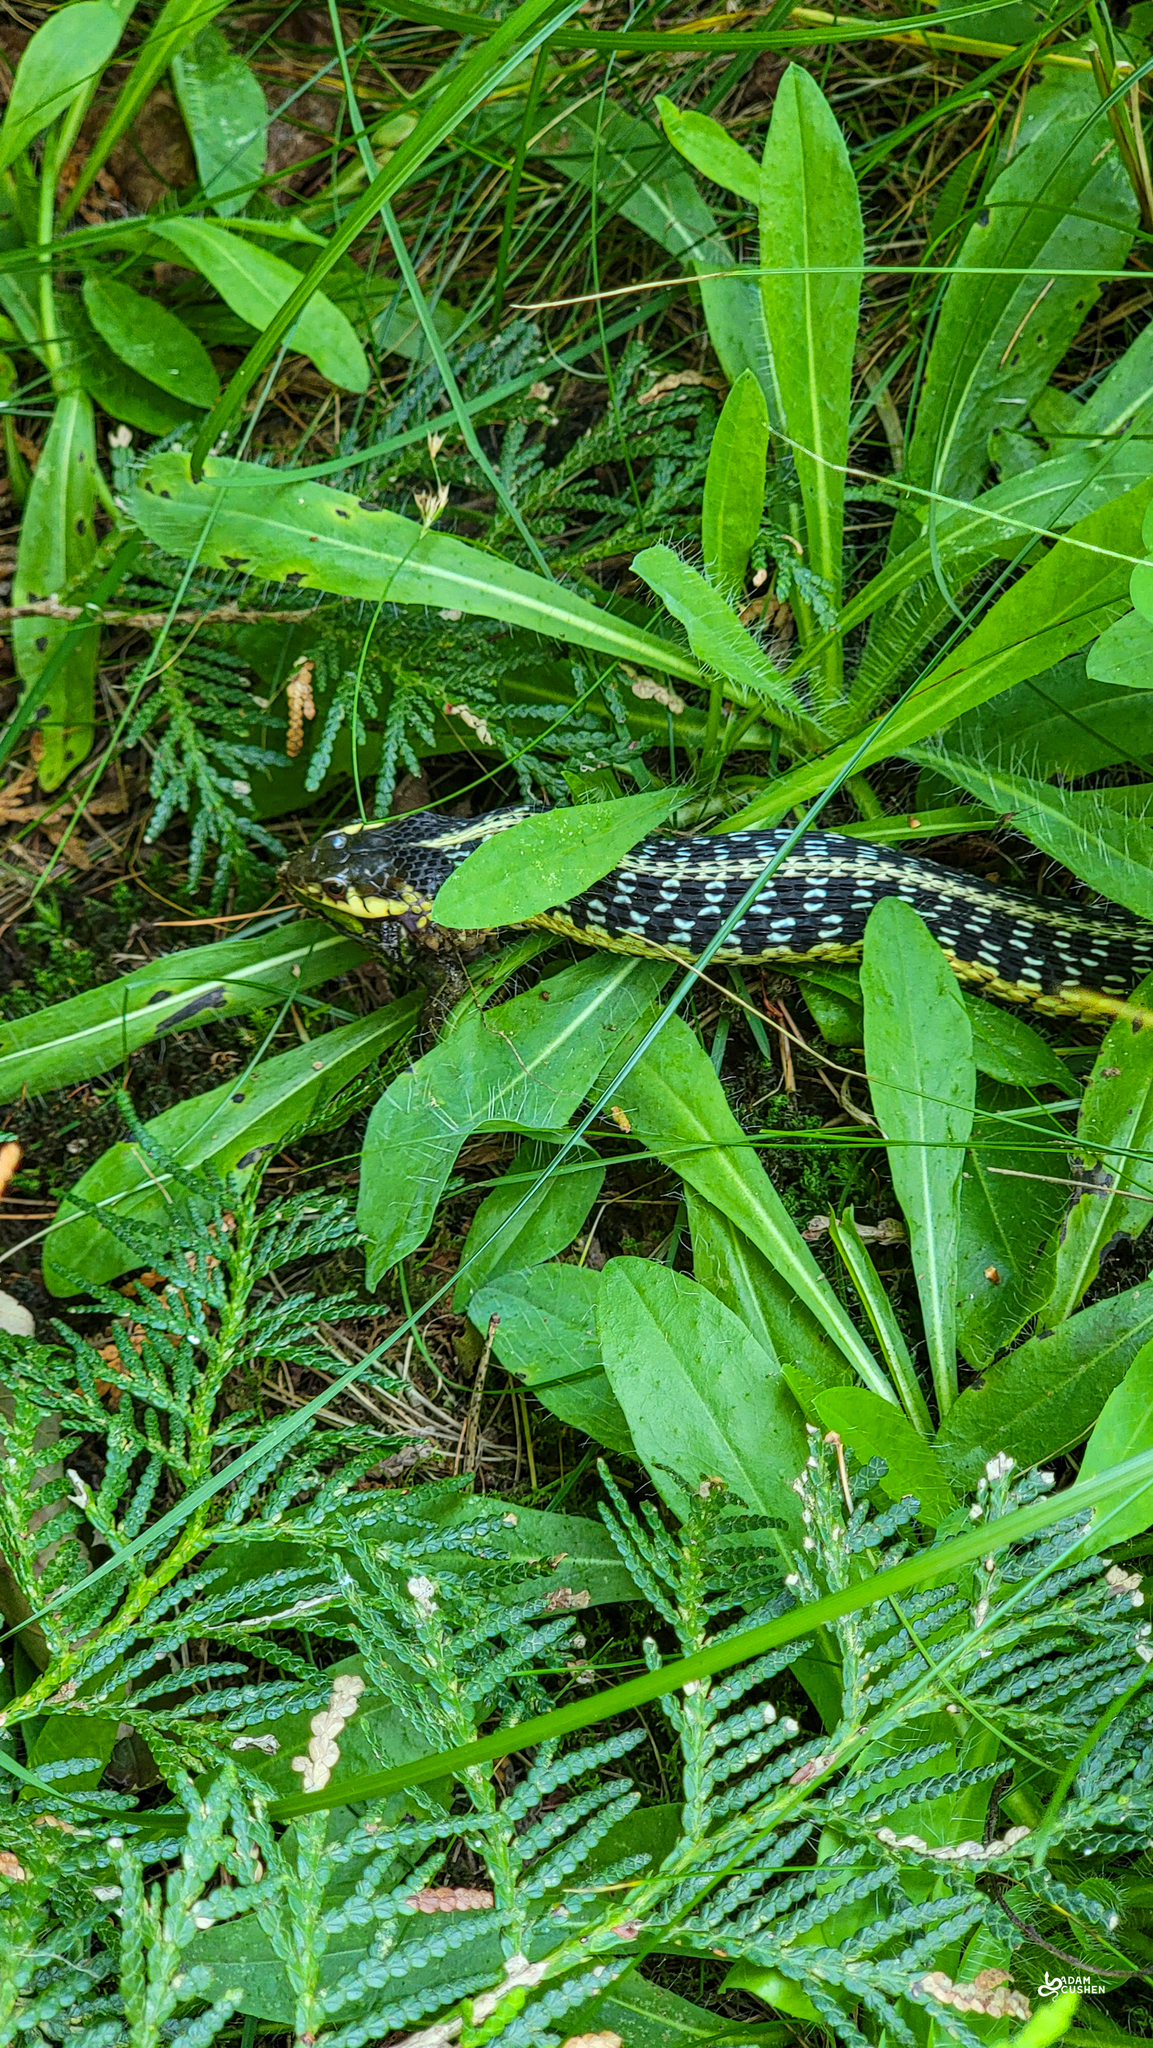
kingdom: Animalia
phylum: Chordata
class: Squamata
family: Colubridae
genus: Thamnophis
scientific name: Thamnophis sirtalis
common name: Common garter snake
